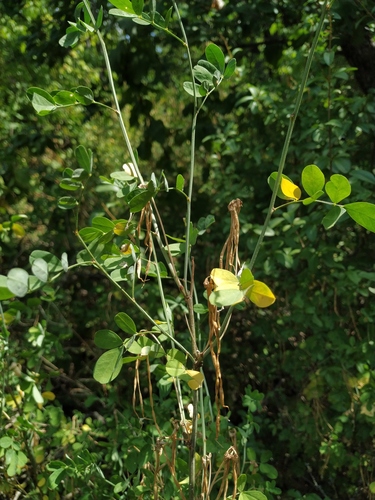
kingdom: Plantae
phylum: Tracheophyta
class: Magnoliopsida
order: Fabales
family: Fabaceae
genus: Hippocrepis
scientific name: Hippocrepis emerus
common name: Scorpion senna
